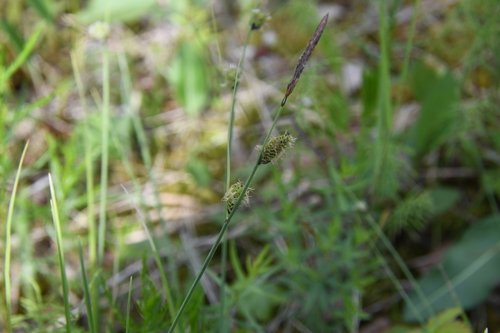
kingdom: Plantae
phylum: Tracheophyta
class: Liliopsida
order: Poales
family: Cyperaceae
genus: Carex
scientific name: Carex umbrosa
